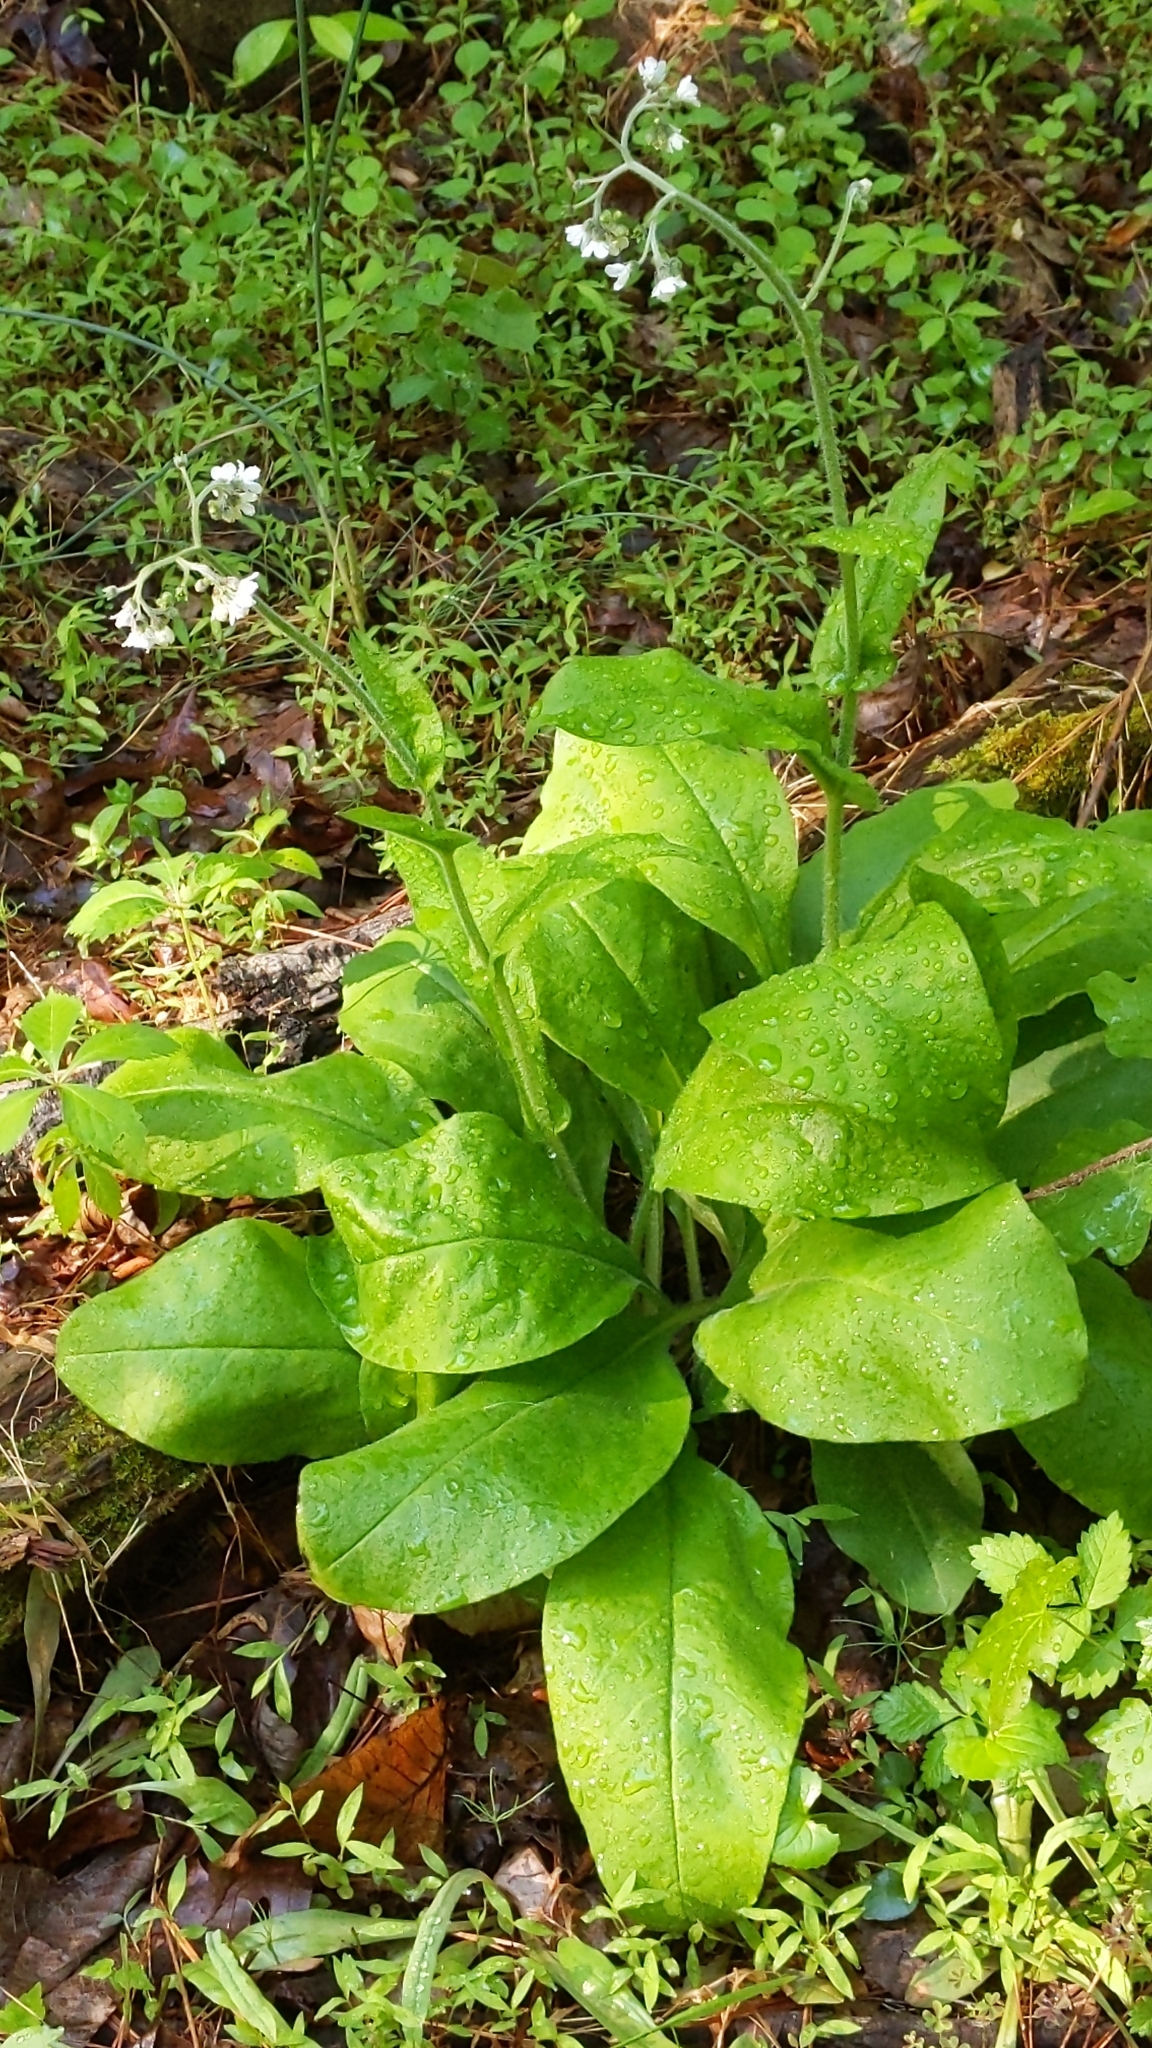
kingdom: Plantae
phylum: Tracheophyta
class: Magnoliopsida
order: Boraginales
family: Boraginaceae
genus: Andersonglossum
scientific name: Andersonglossum virginianum
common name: Wild comfrey
